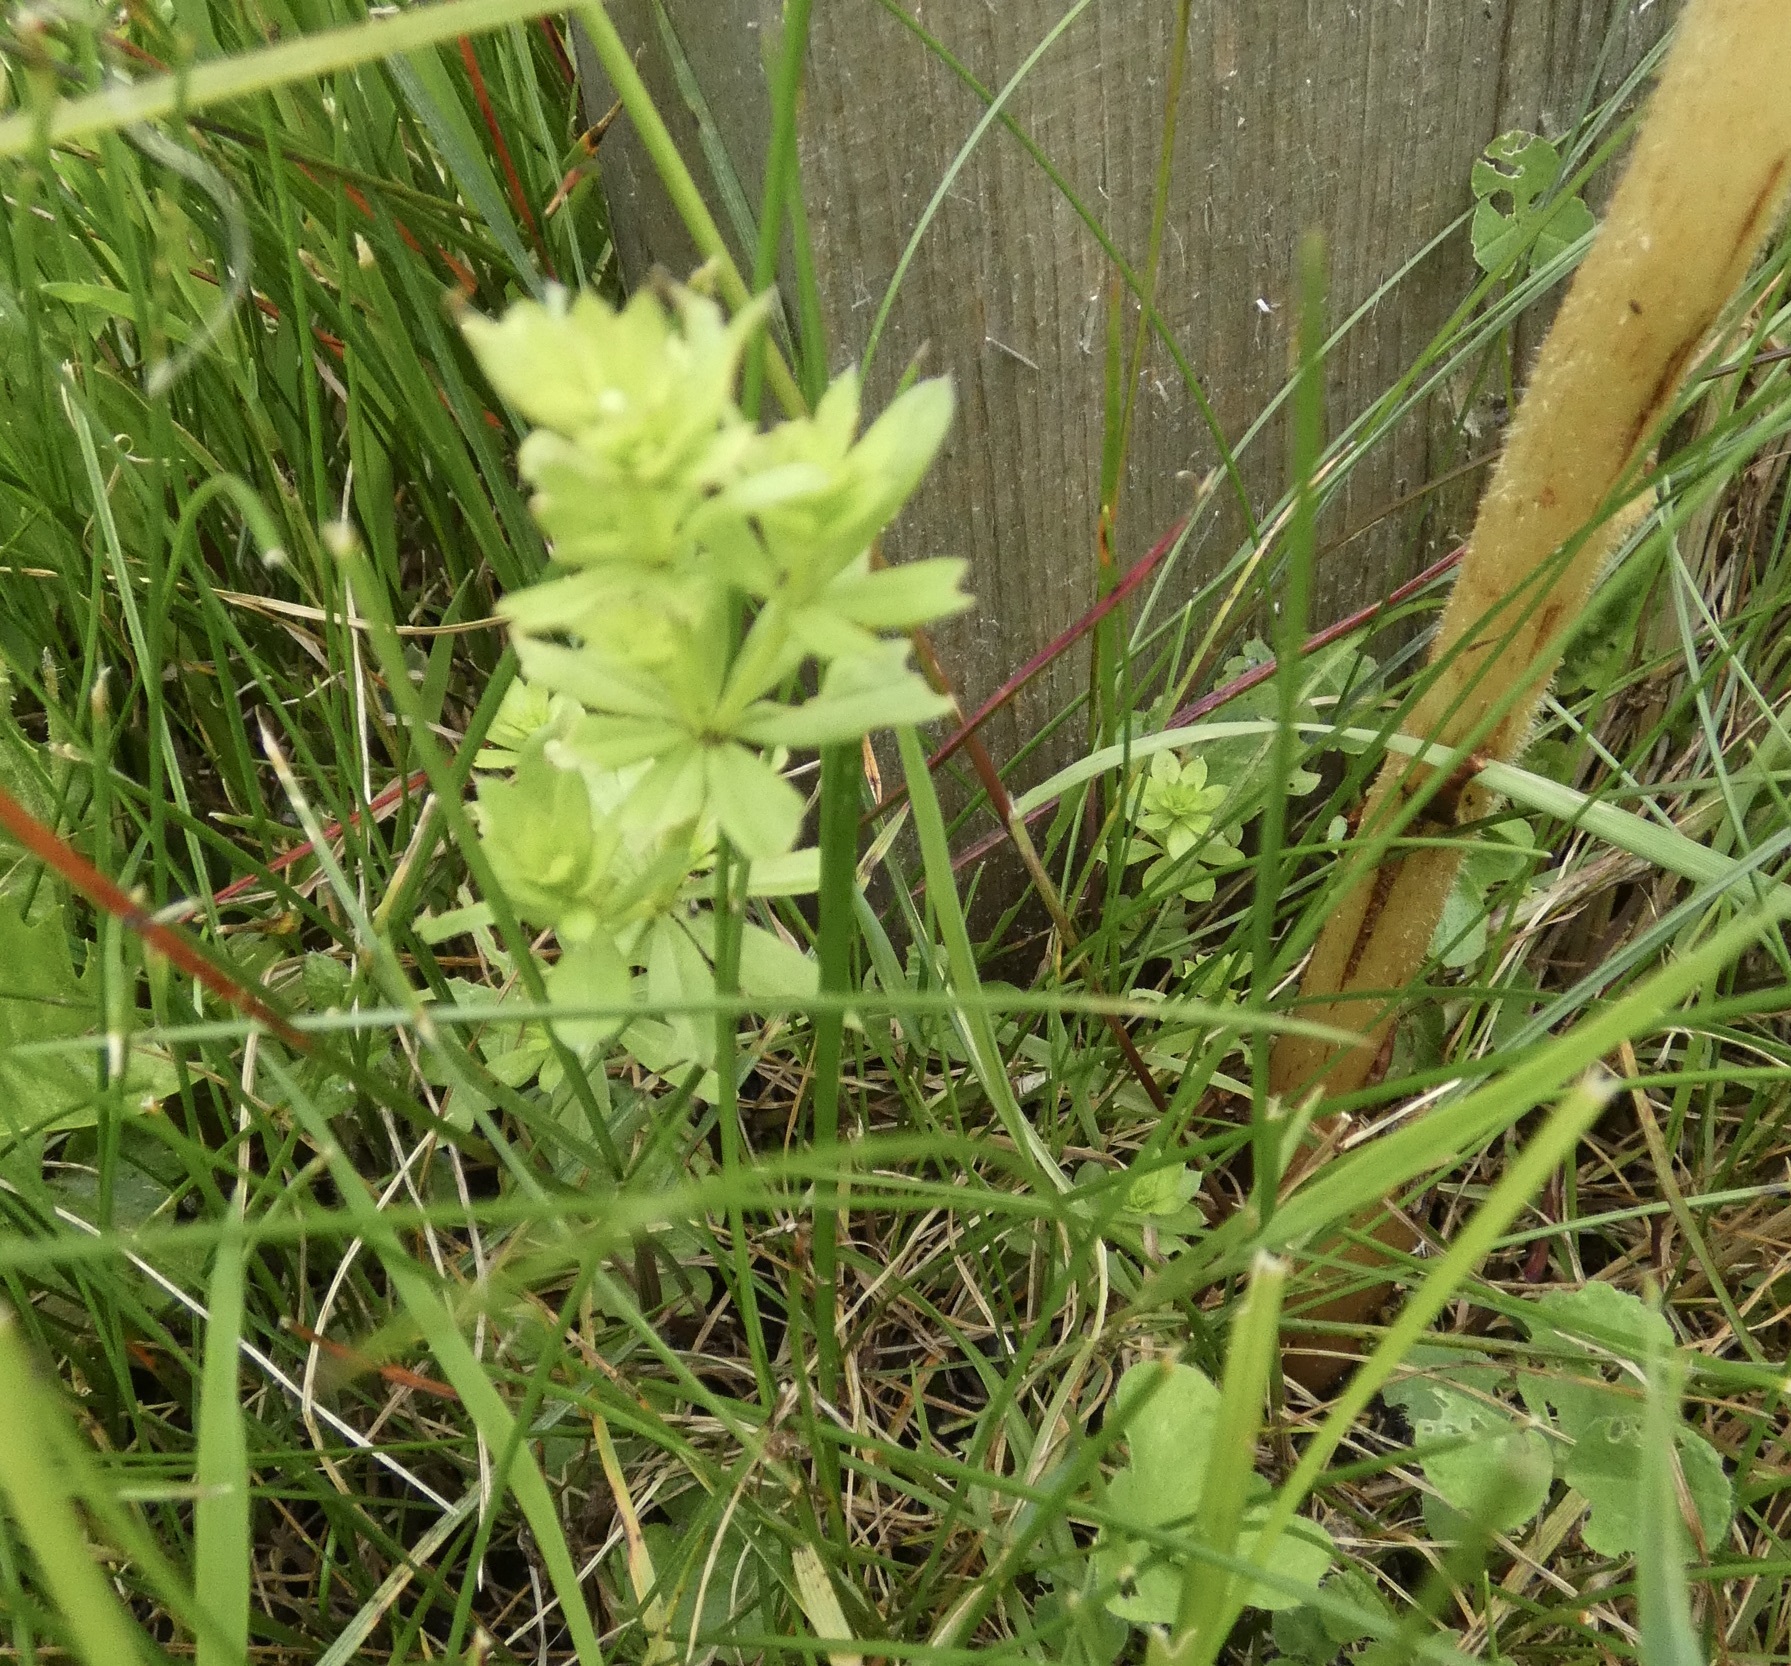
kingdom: Plantae
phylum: Tracheophyta
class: Magnoliopsida
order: Lamiales
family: Orobanchaceae
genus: Orobanche
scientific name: Orobanche caryophyllacea
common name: Bedstraw broomrape
